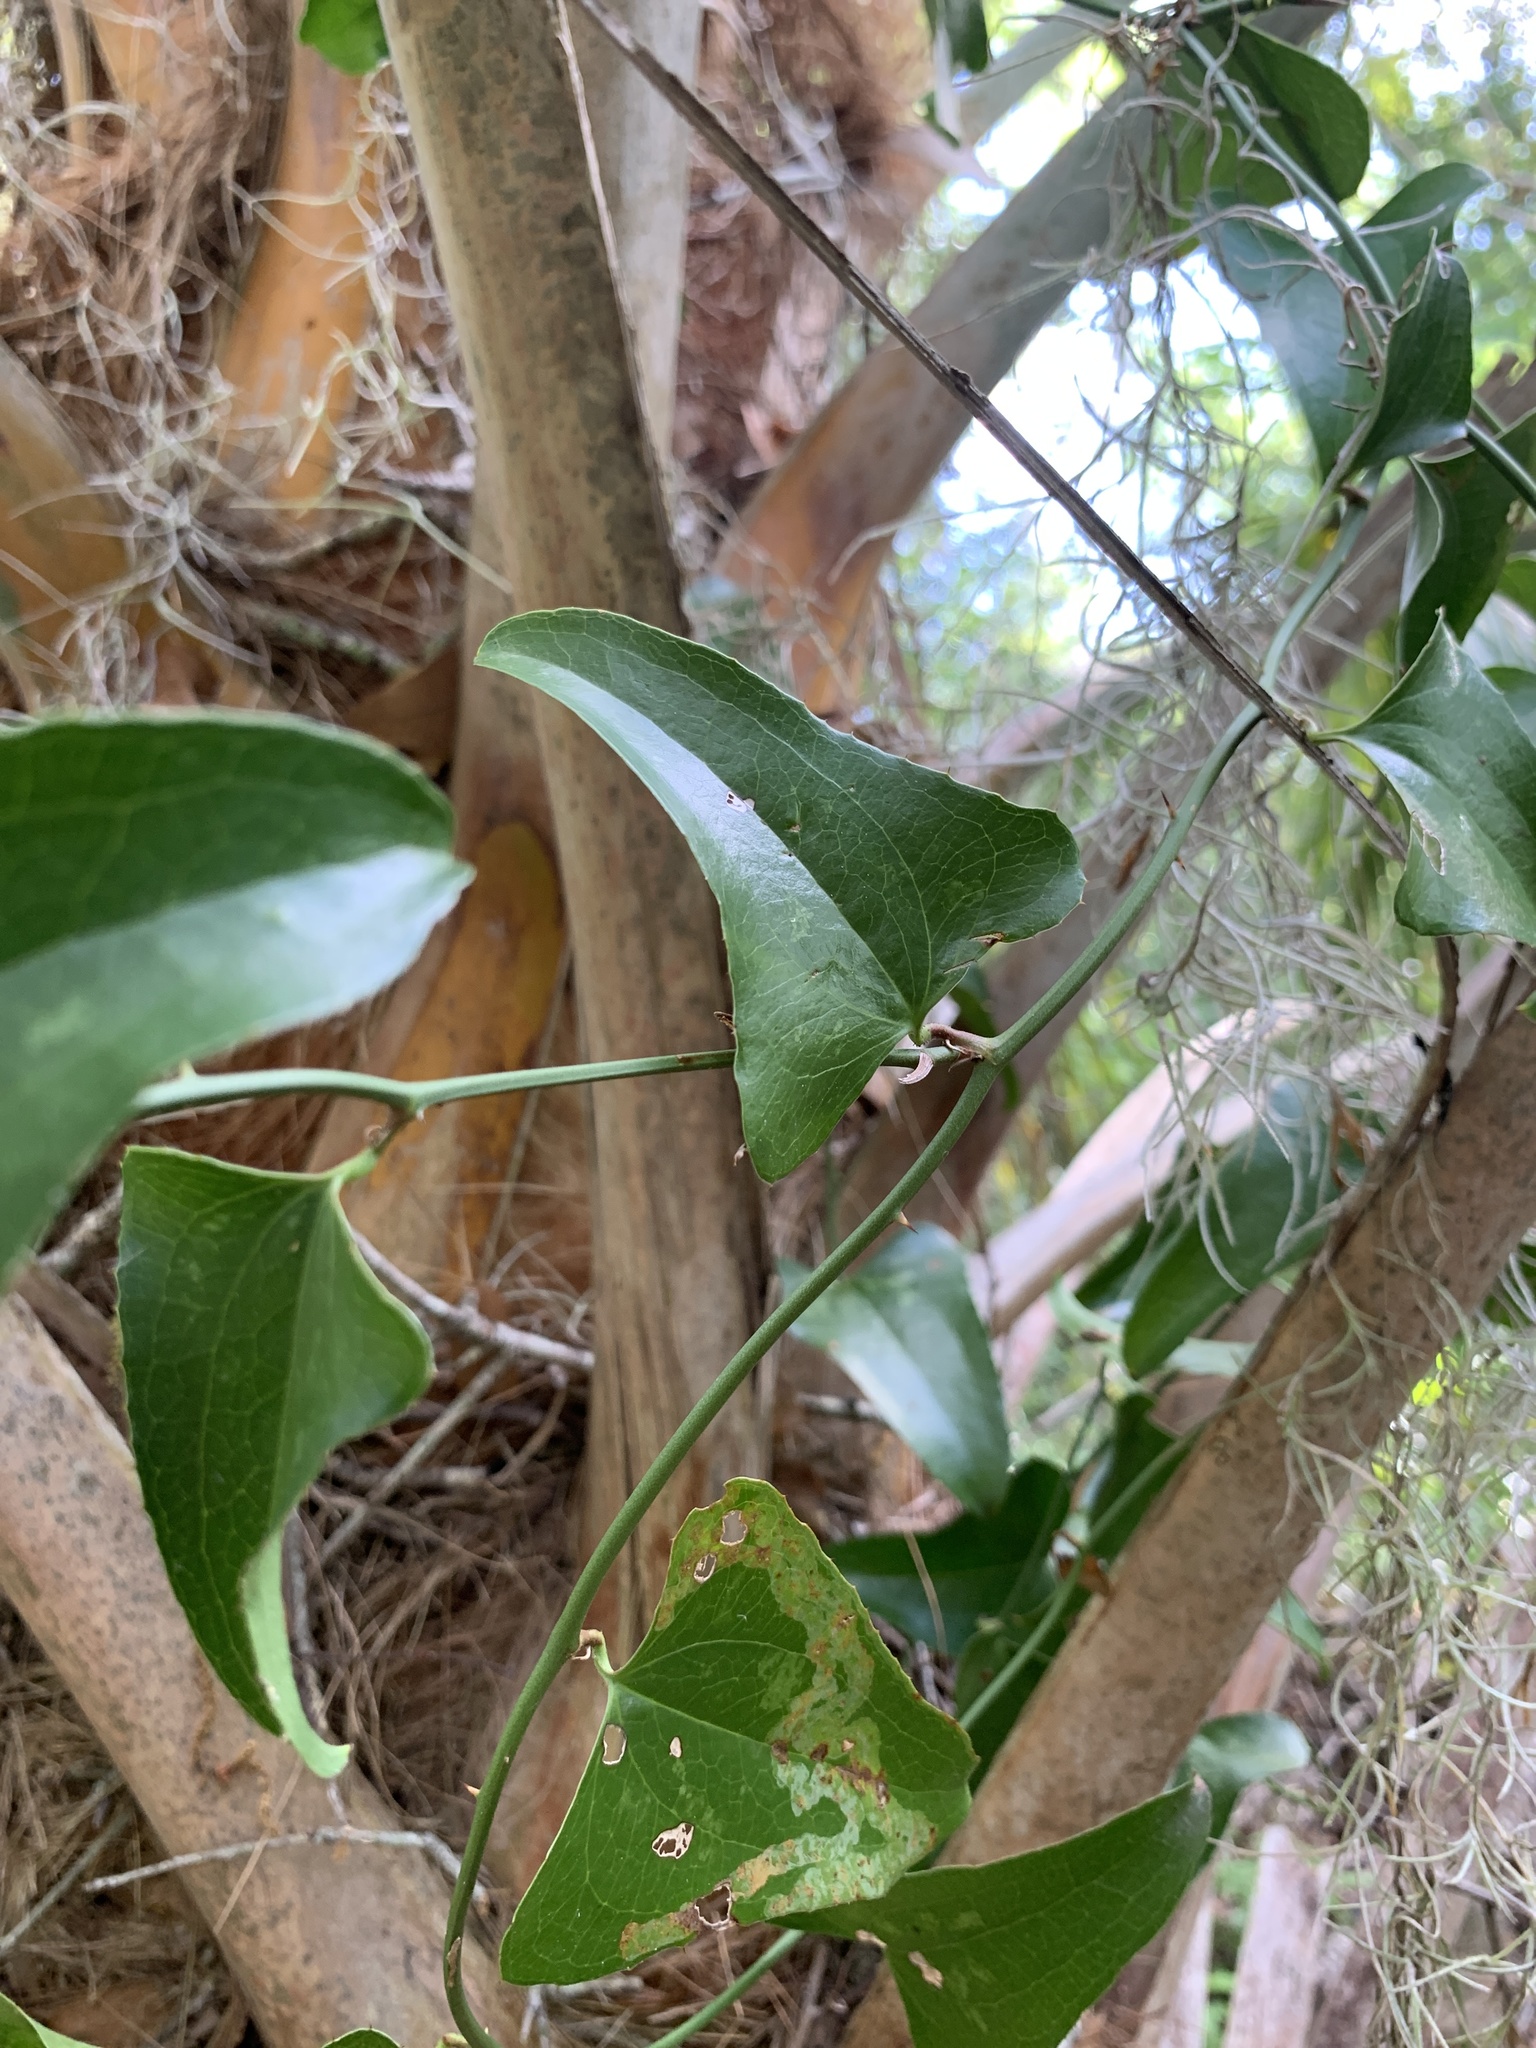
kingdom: Plantae
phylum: Tracheophyta
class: Liliopsida
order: Liliales
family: Smilacaceae
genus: Smilax
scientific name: Smilax bona-nox
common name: Catbrier
